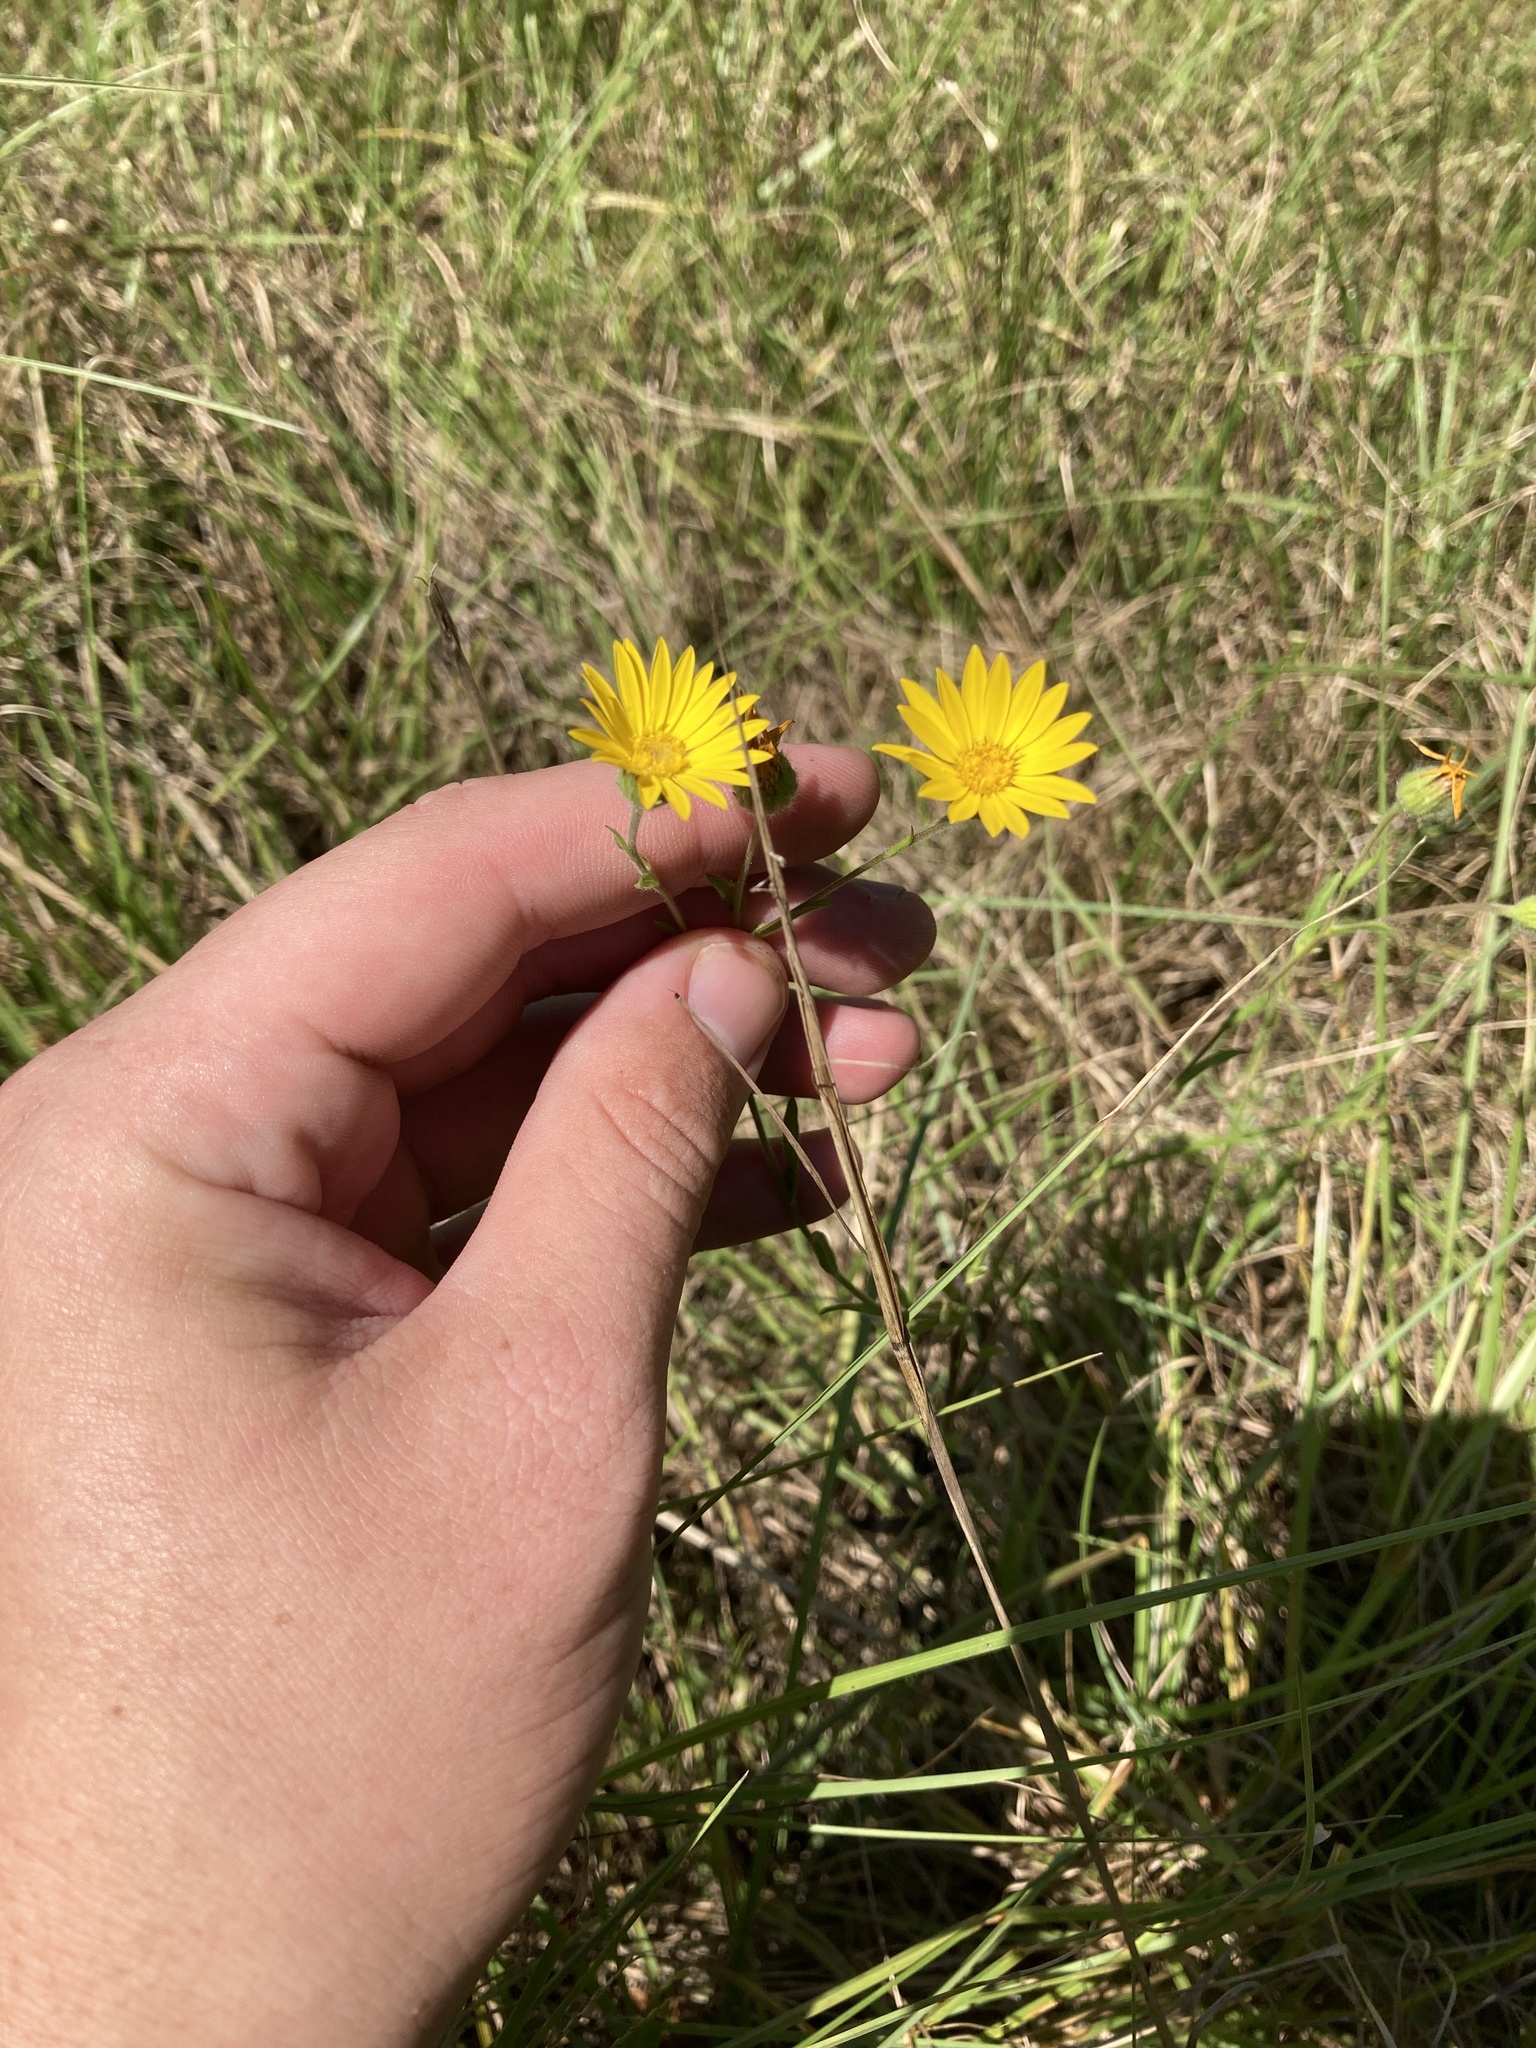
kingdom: Plantae
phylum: Tracheophyta
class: Magnoliopsida
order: Asterales
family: Asteraceae
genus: Bradburia
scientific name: Bradburia pilosa
